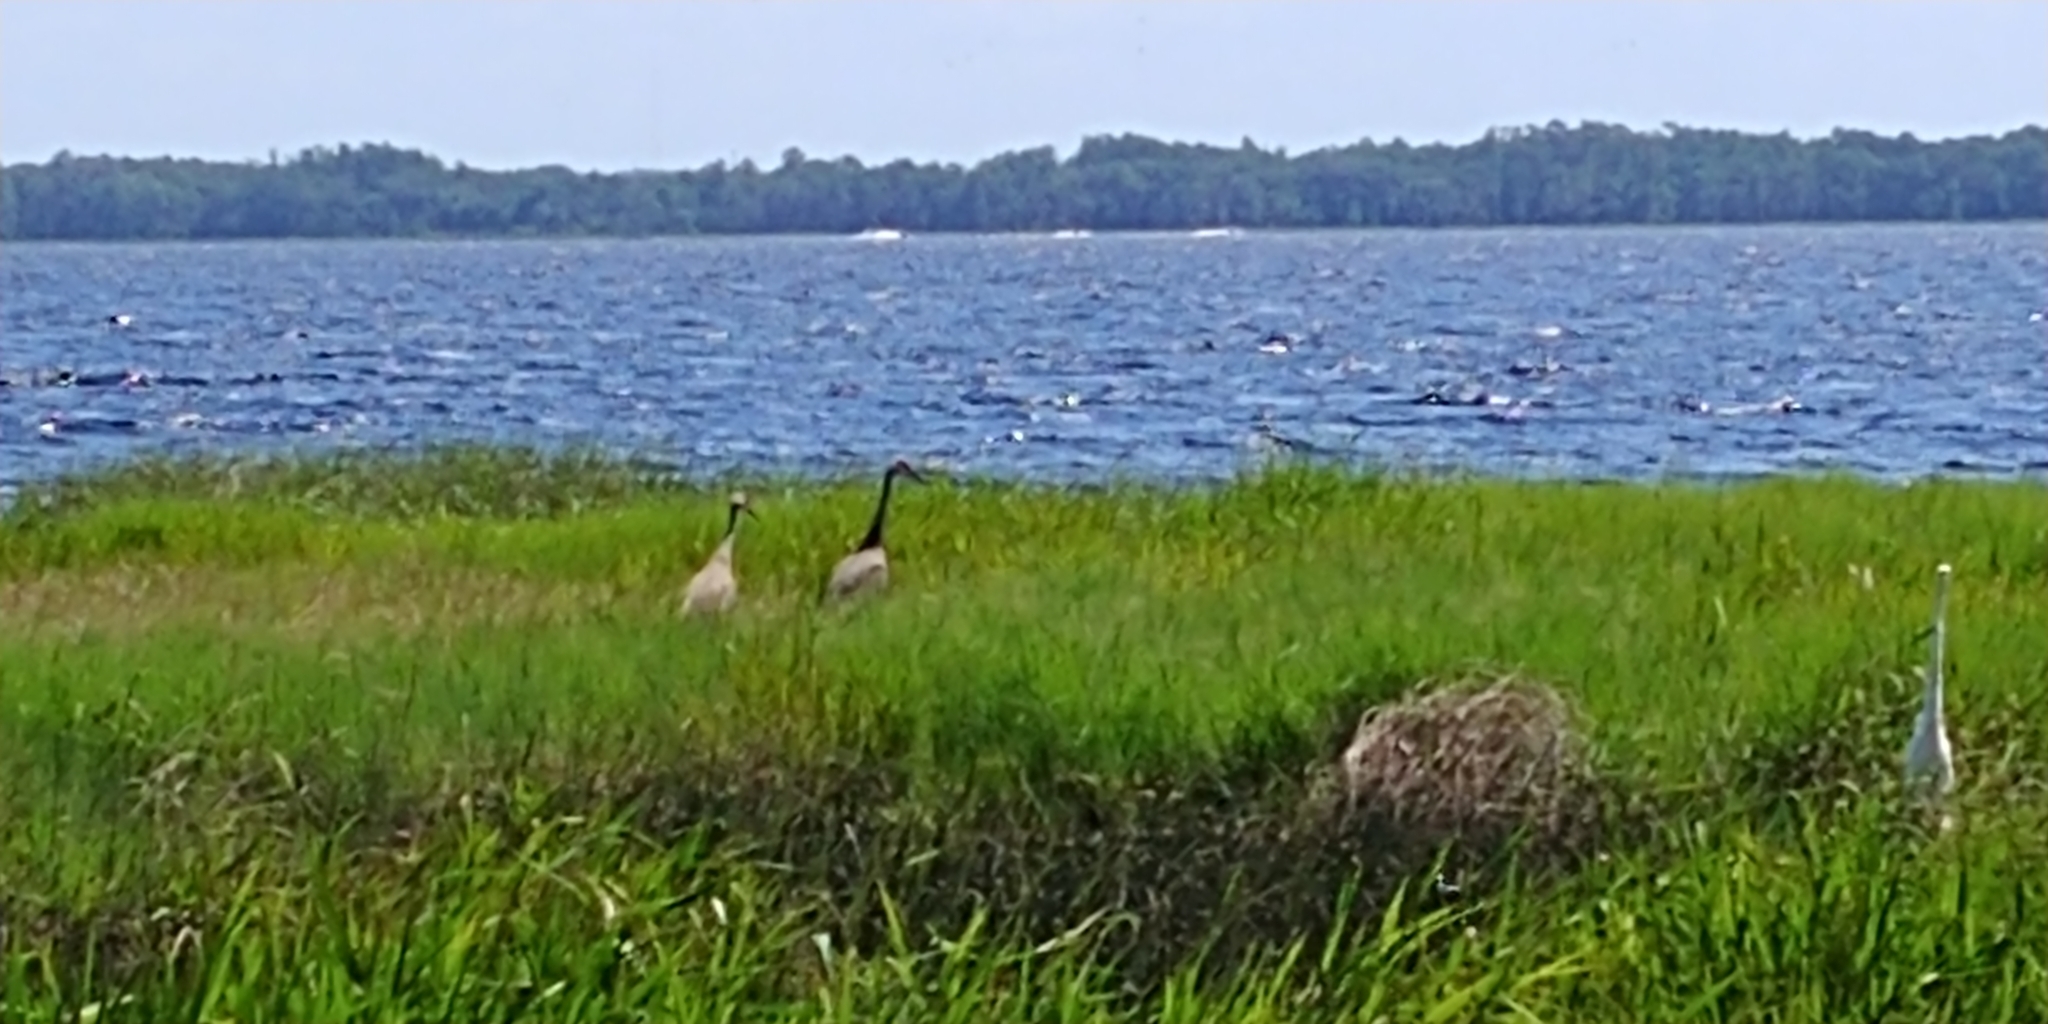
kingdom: Animalia
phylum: Chordata
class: Aves
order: Gruiformes
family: Gruidae
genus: Grus
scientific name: Grus canadensis
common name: Sandhill crane
